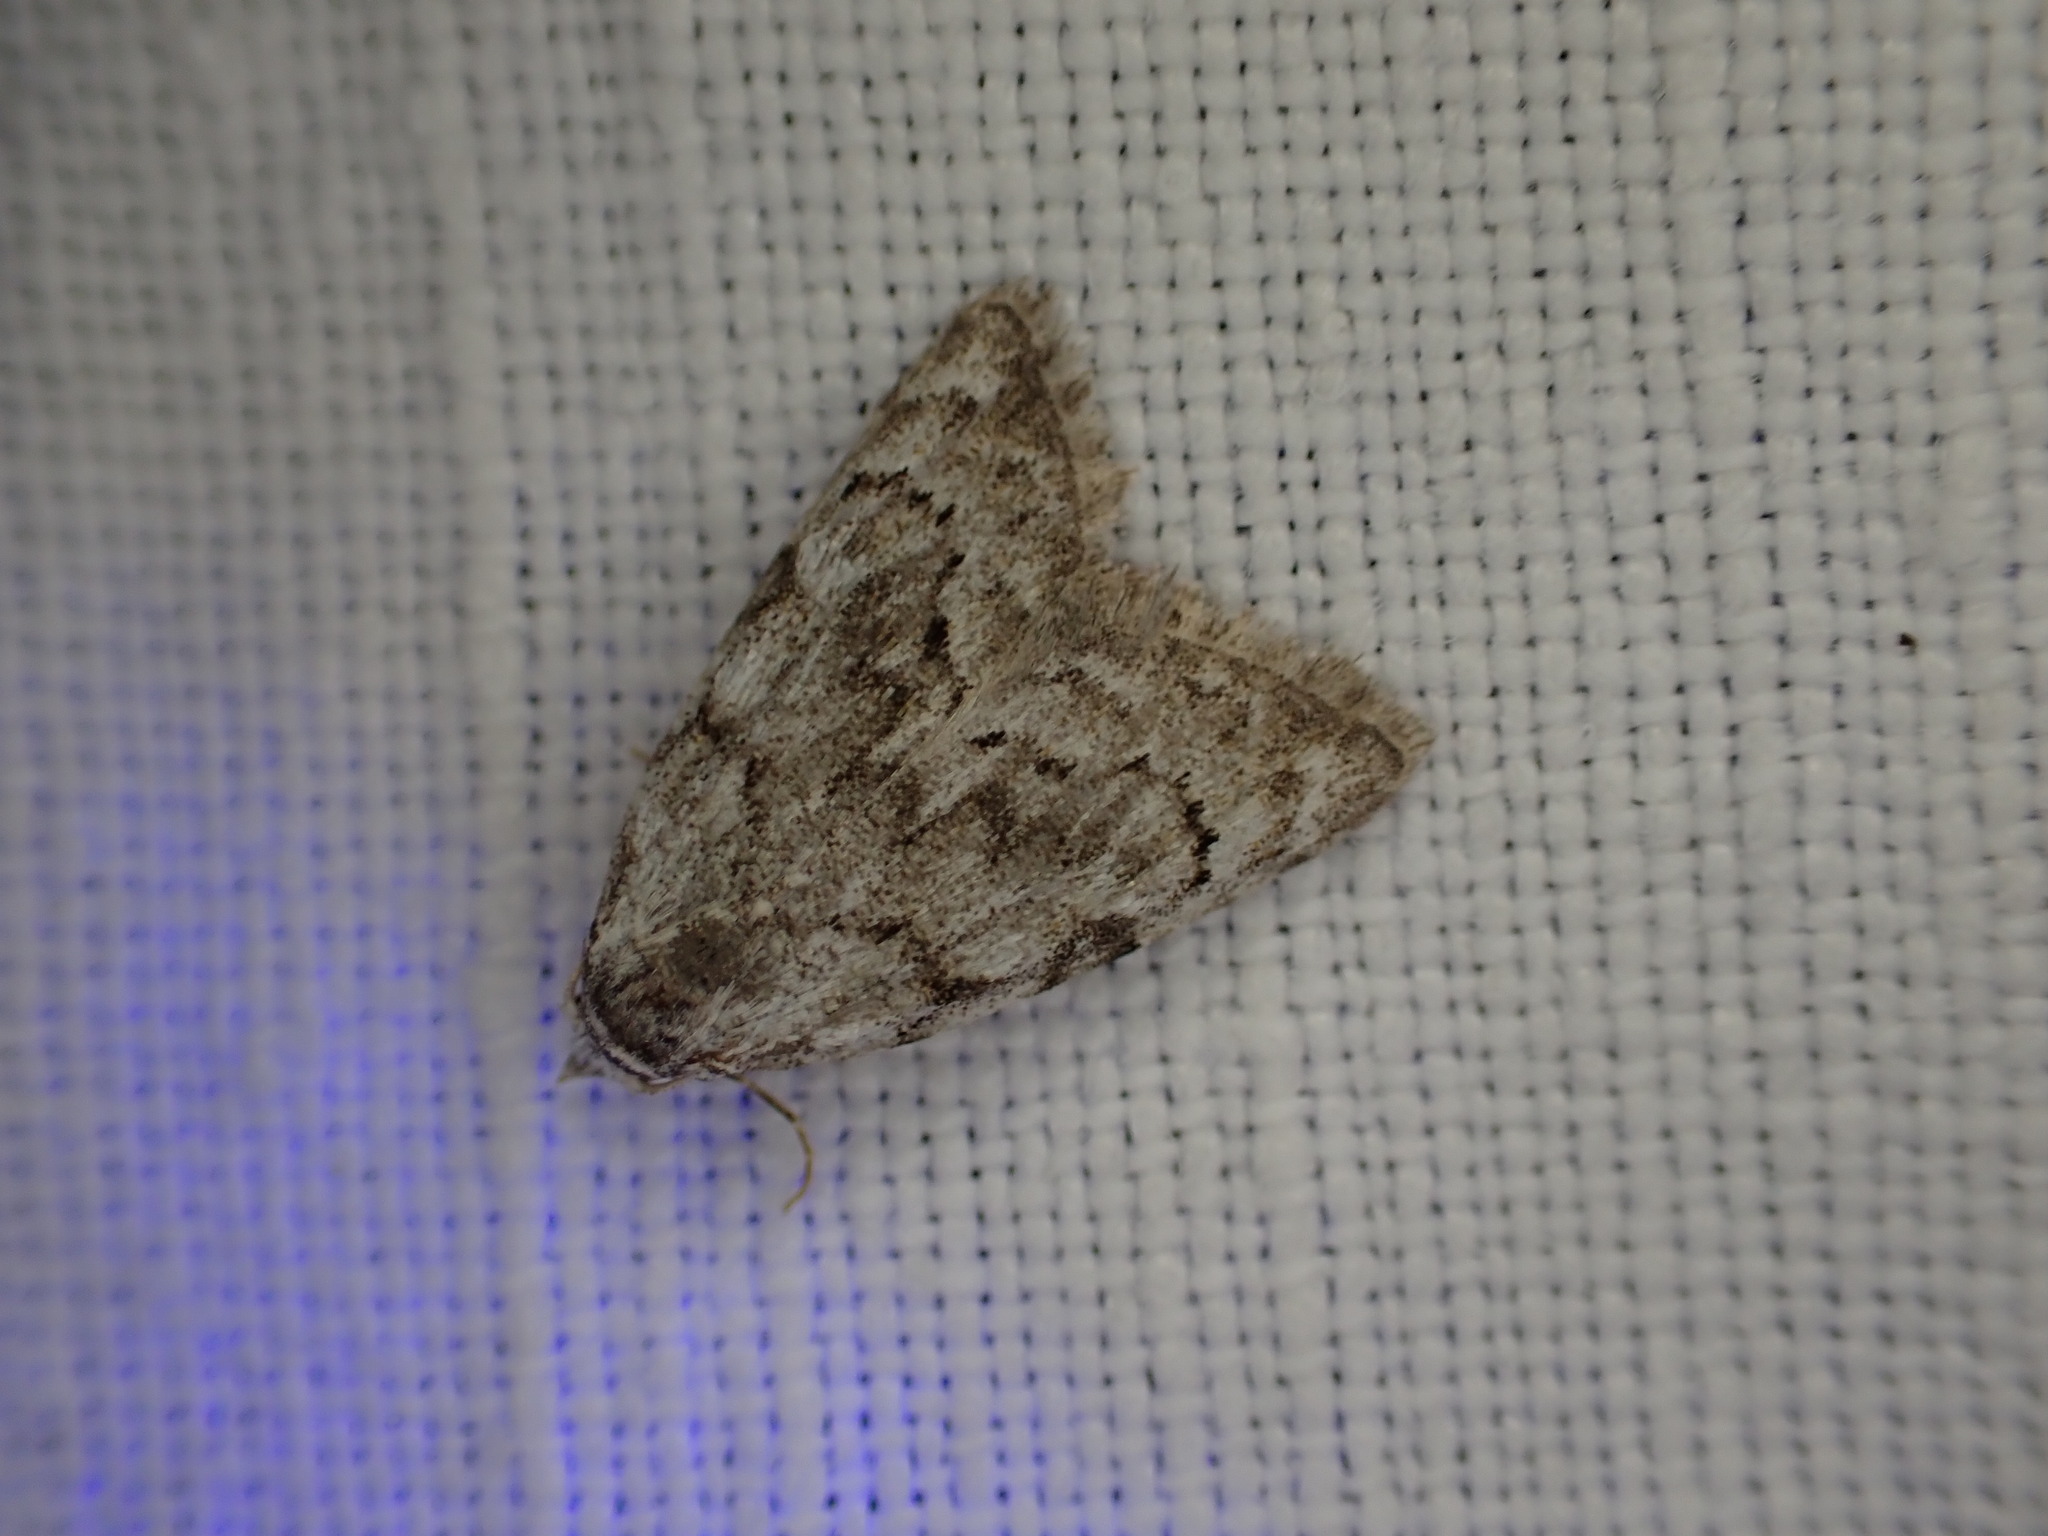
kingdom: Animalia
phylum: Arthropoda
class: Insecta
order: Lepidoptera
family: Nolidae
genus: Nola
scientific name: Nola confusalis
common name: Least black arches
